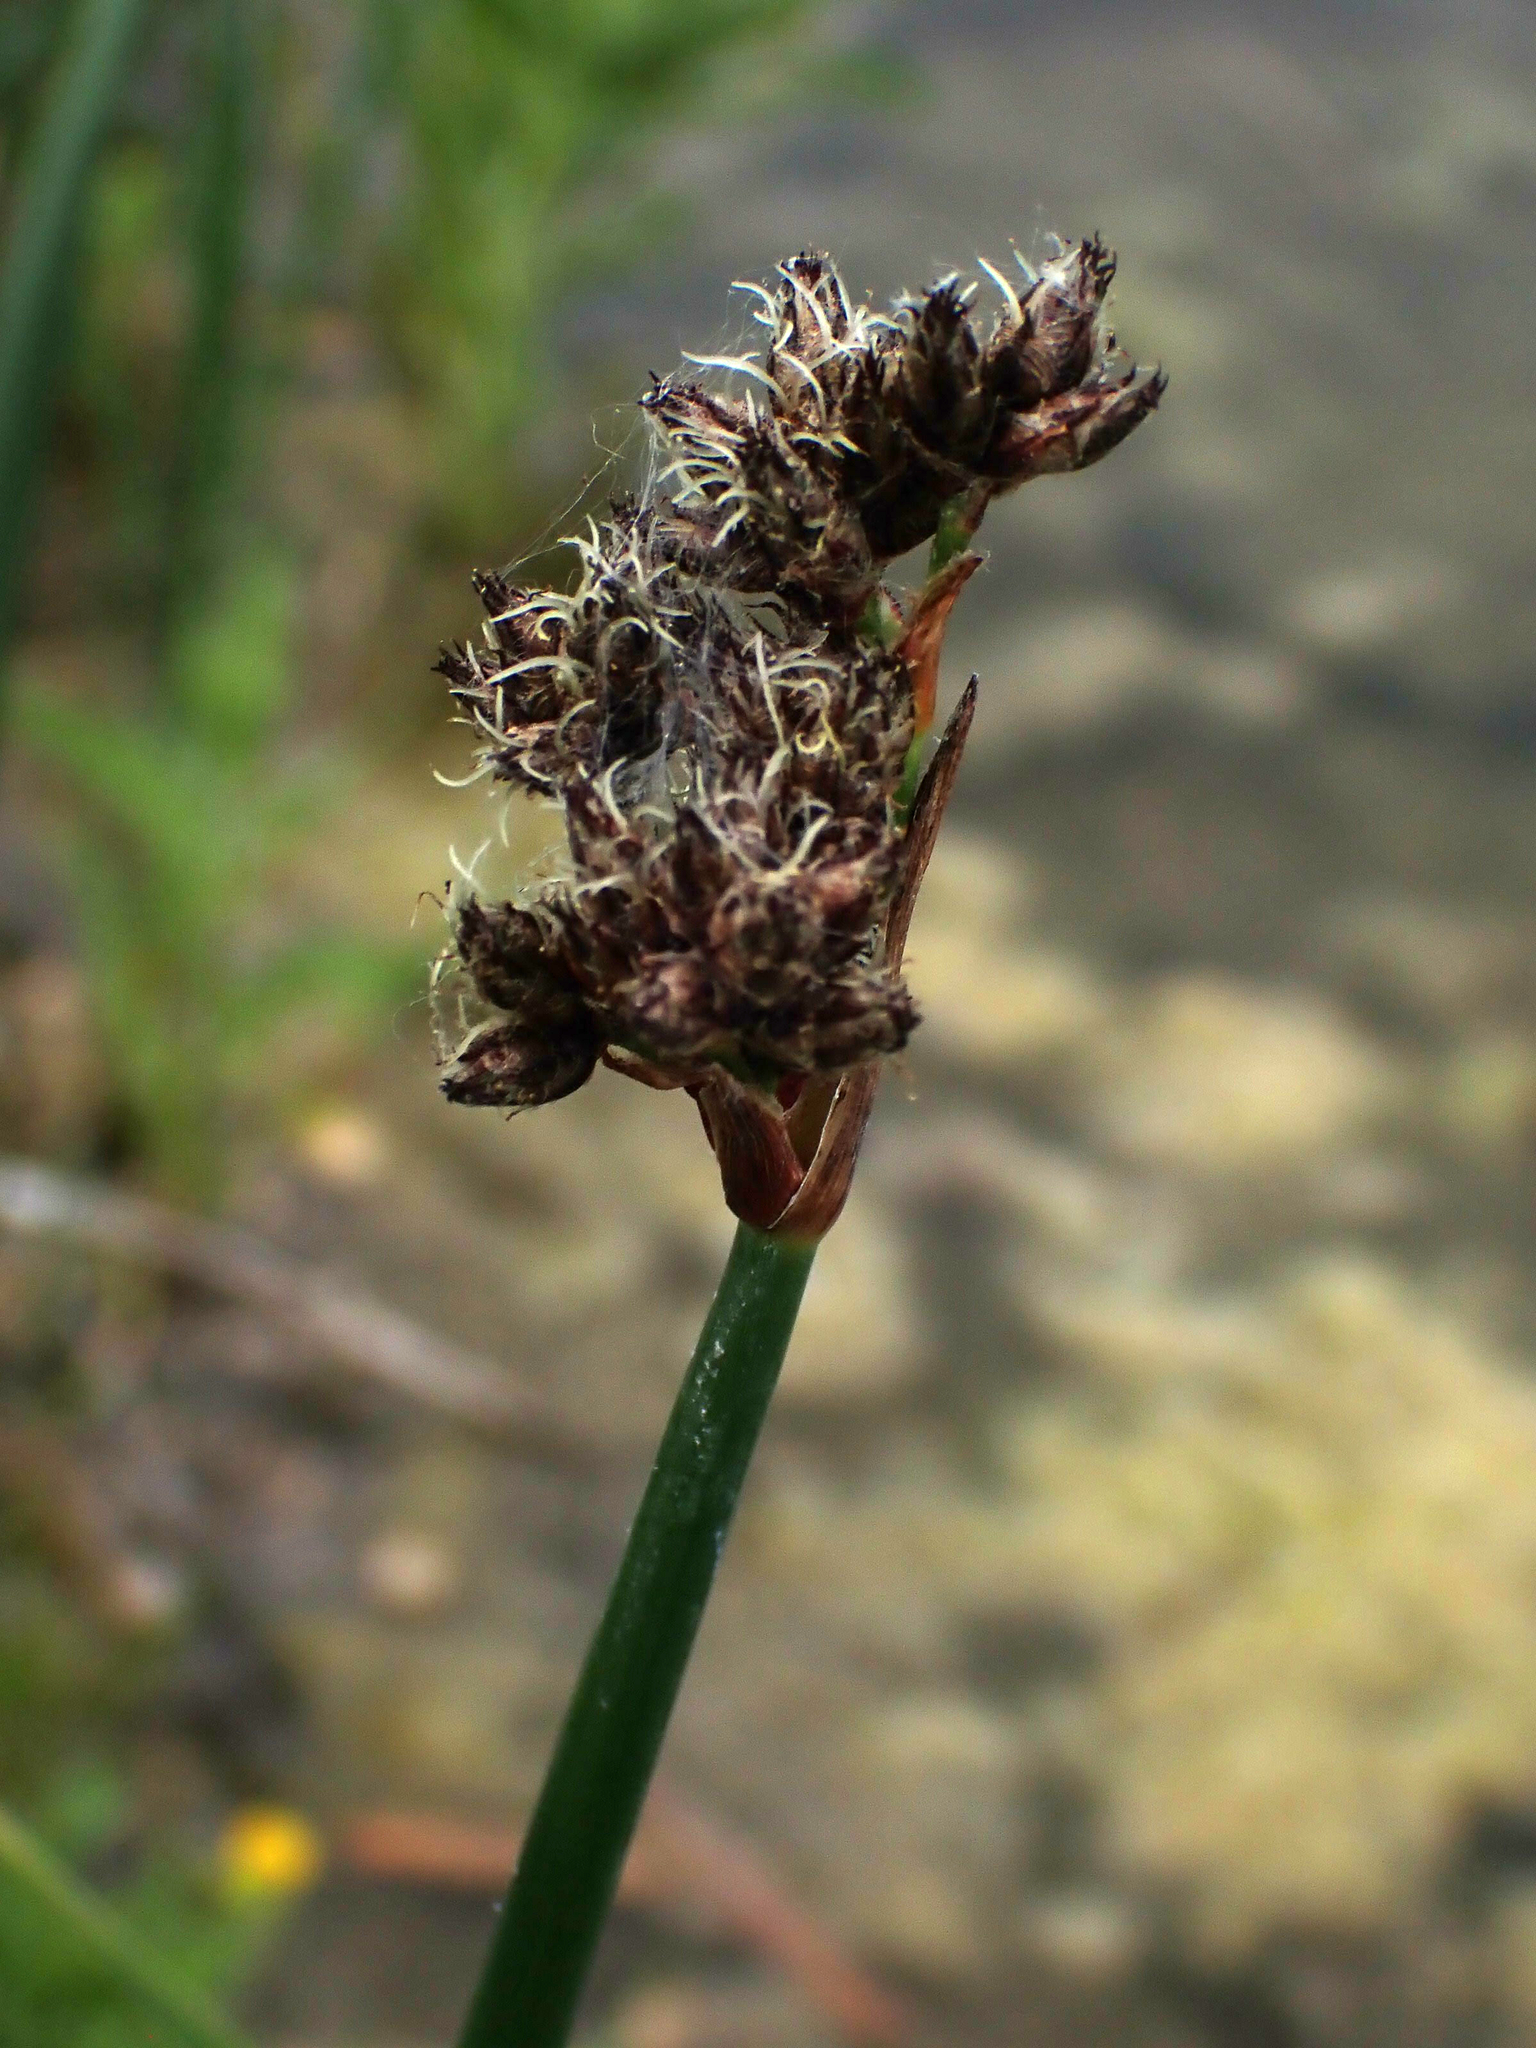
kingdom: Plantae
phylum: Tracheophyta
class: Liliopsida
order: Poales
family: Cyperaceae
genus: Schoenoplectus
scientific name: Schoenoplectus acutus
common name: Hardstem bulrush
